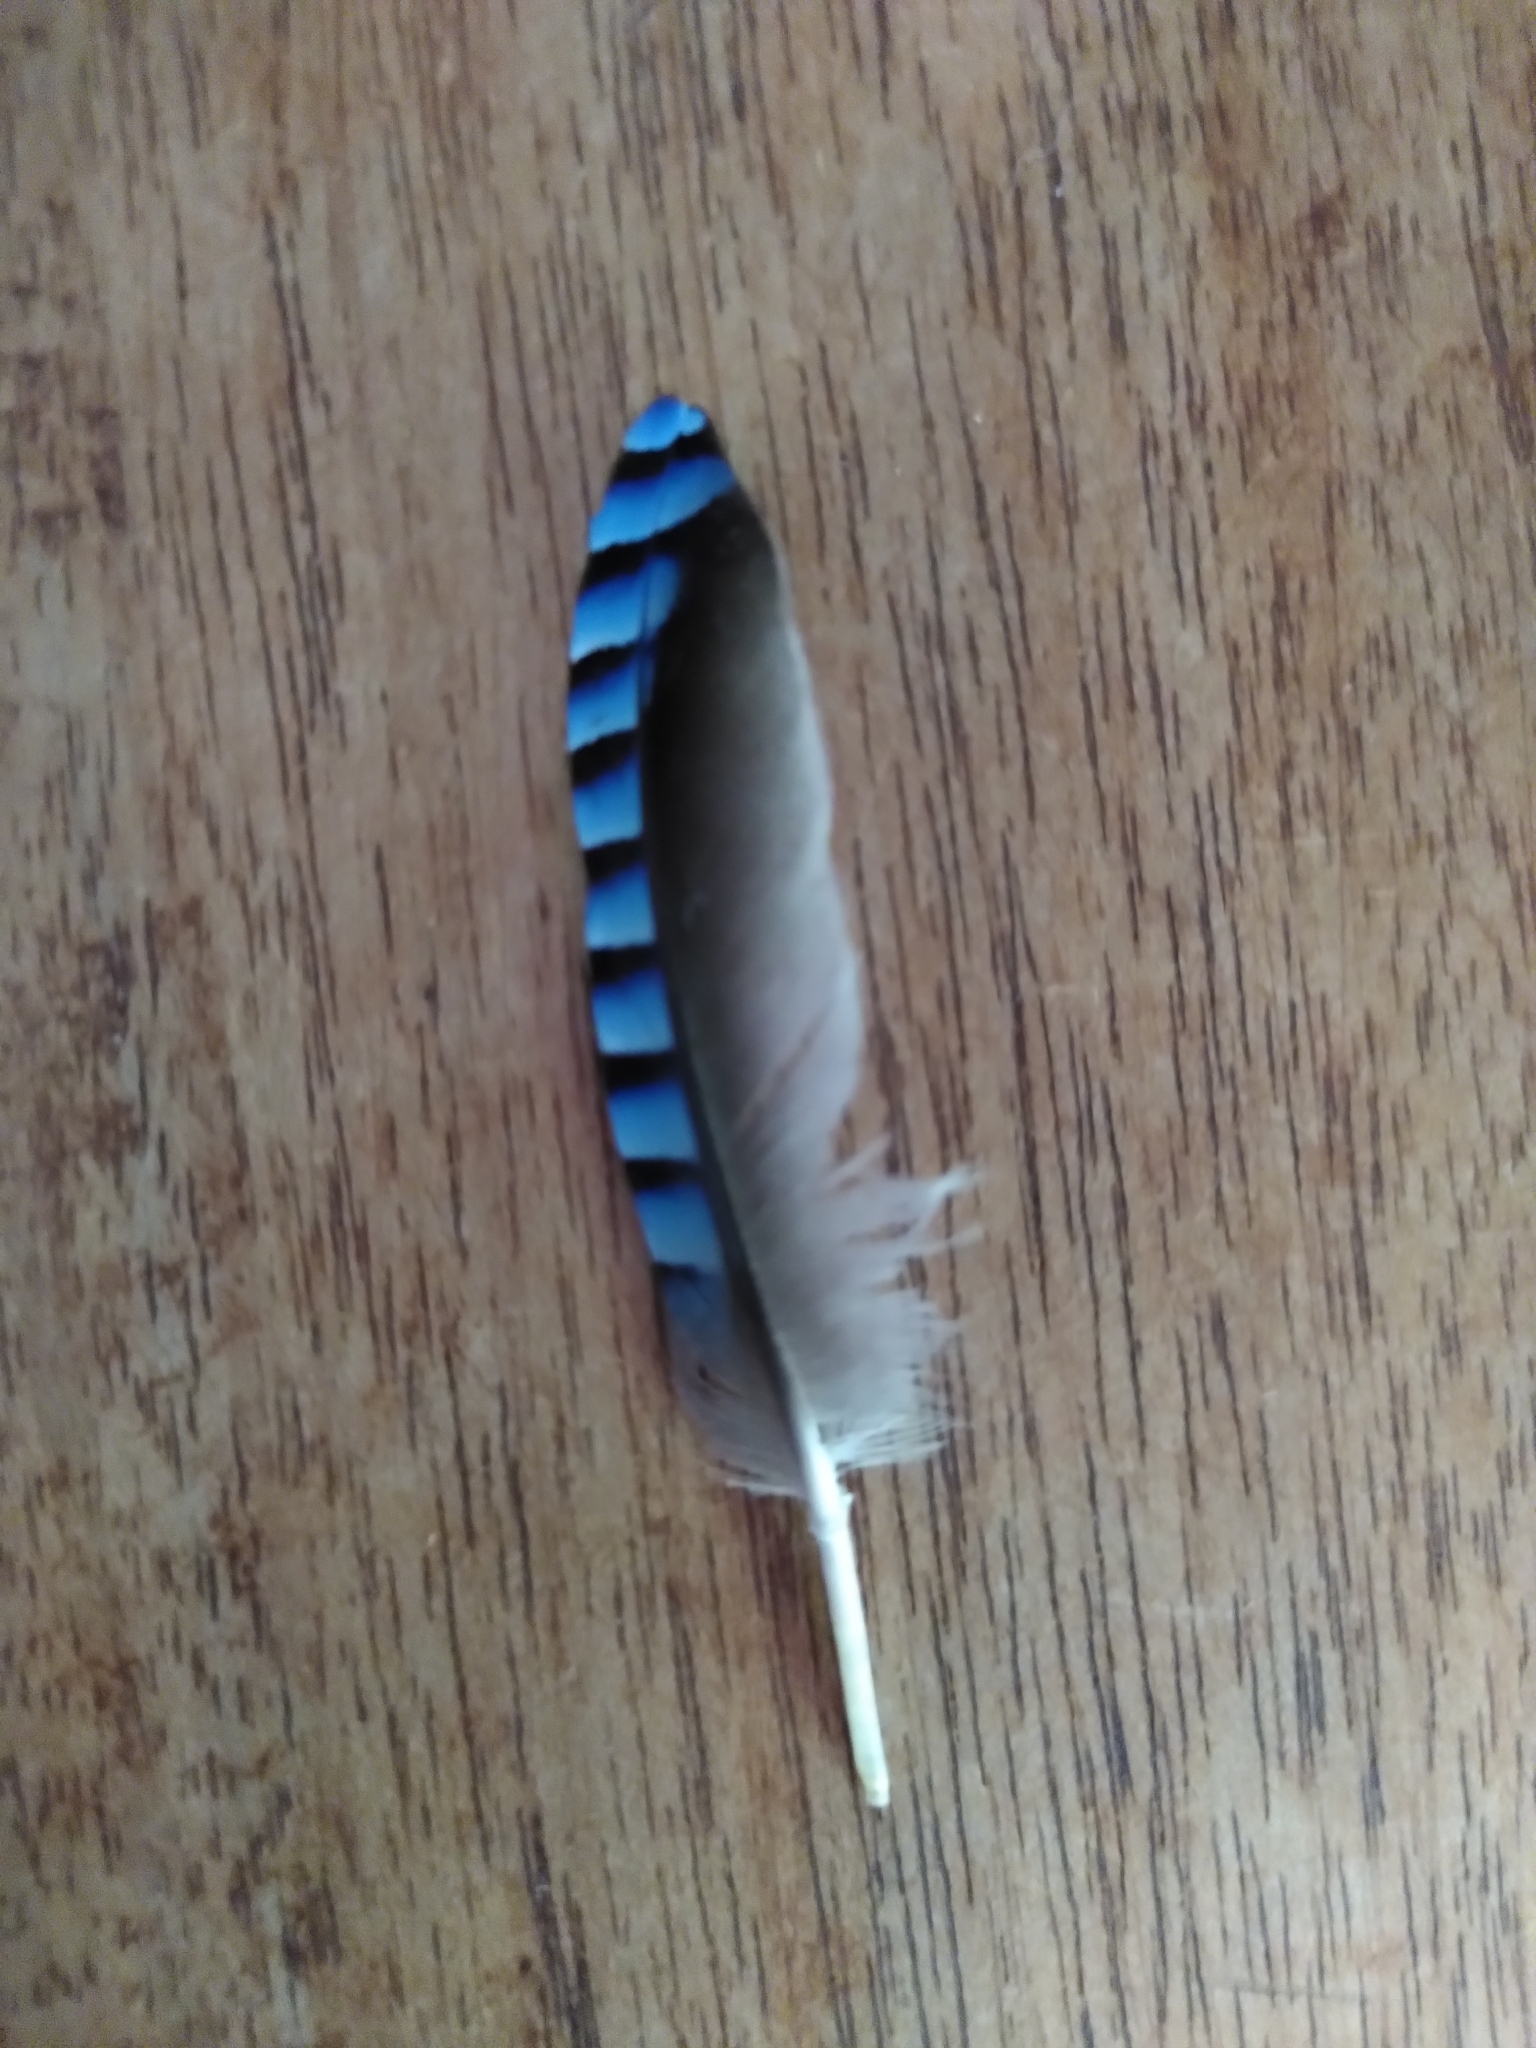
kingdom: Animalia
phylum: Chordata
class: Aves
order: Passeriformes
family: Corvidae
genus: Garrulus
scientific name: Garrulus glandarius
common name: Eurasian jay
